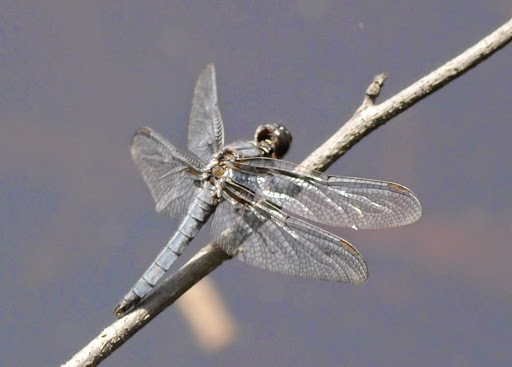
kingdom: Animalia
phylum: Arthropoda
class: Insecta
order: Odonata
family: Libellulidae
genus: Ladona
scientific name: Ladona deplanata
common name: Blue corporal
